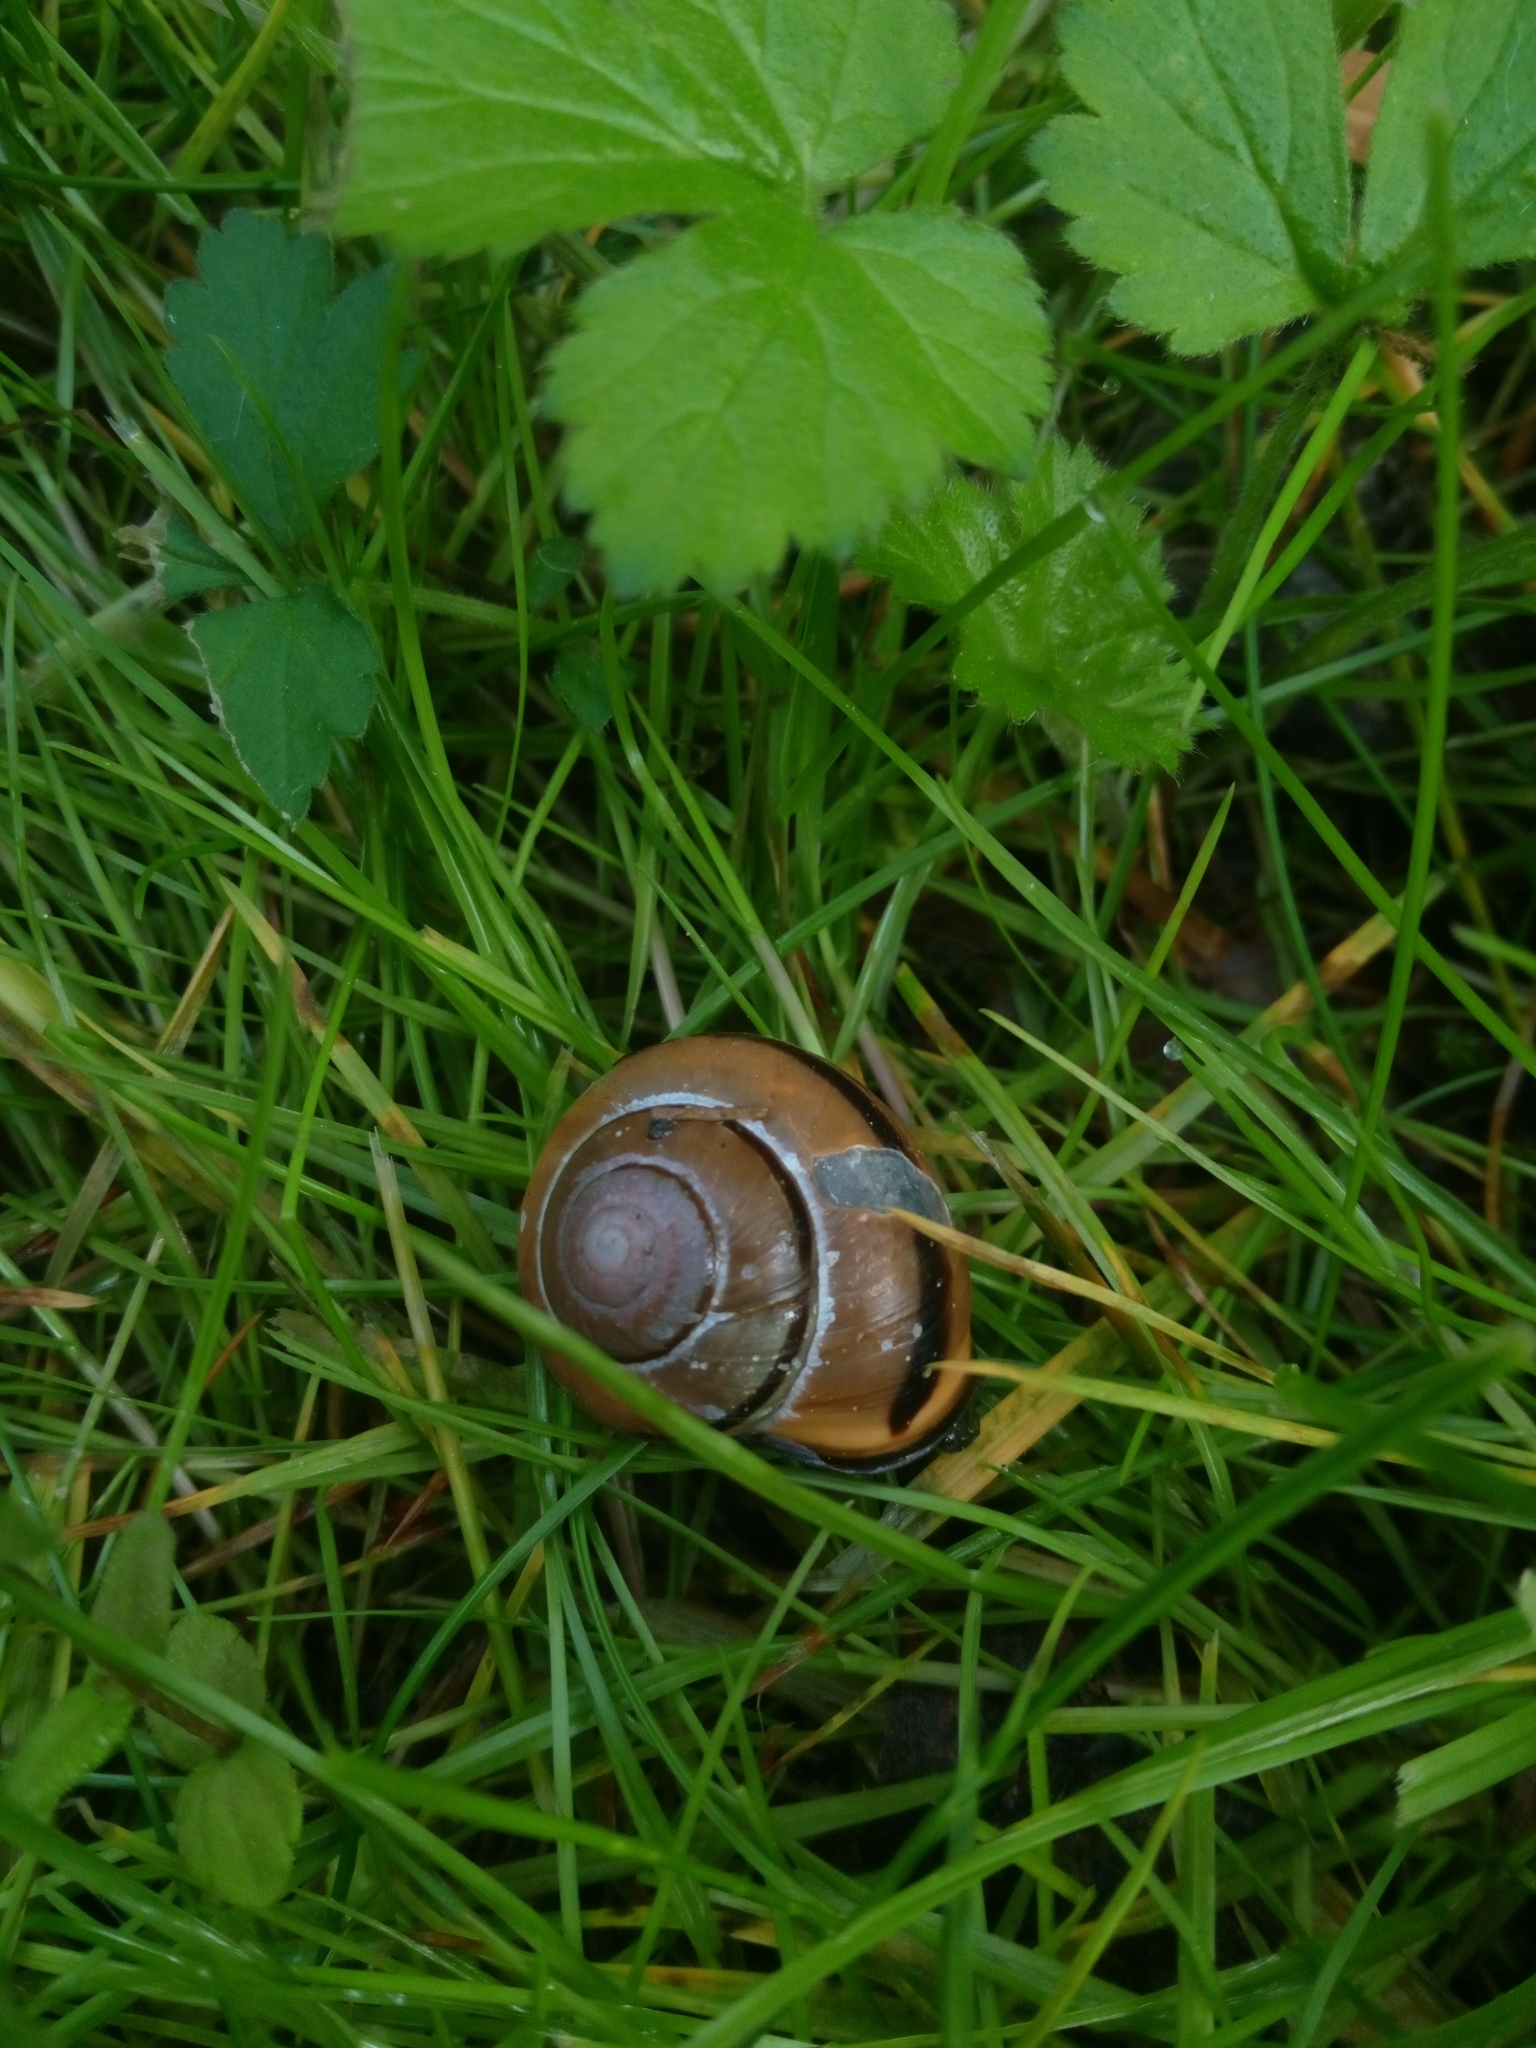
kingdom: Animalia
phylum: Mollusca
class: Gastropoda
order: Stylommatophora
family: Helicidae
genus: Cepaea
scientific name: Cepaea nemoralis
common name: Grovesnail
